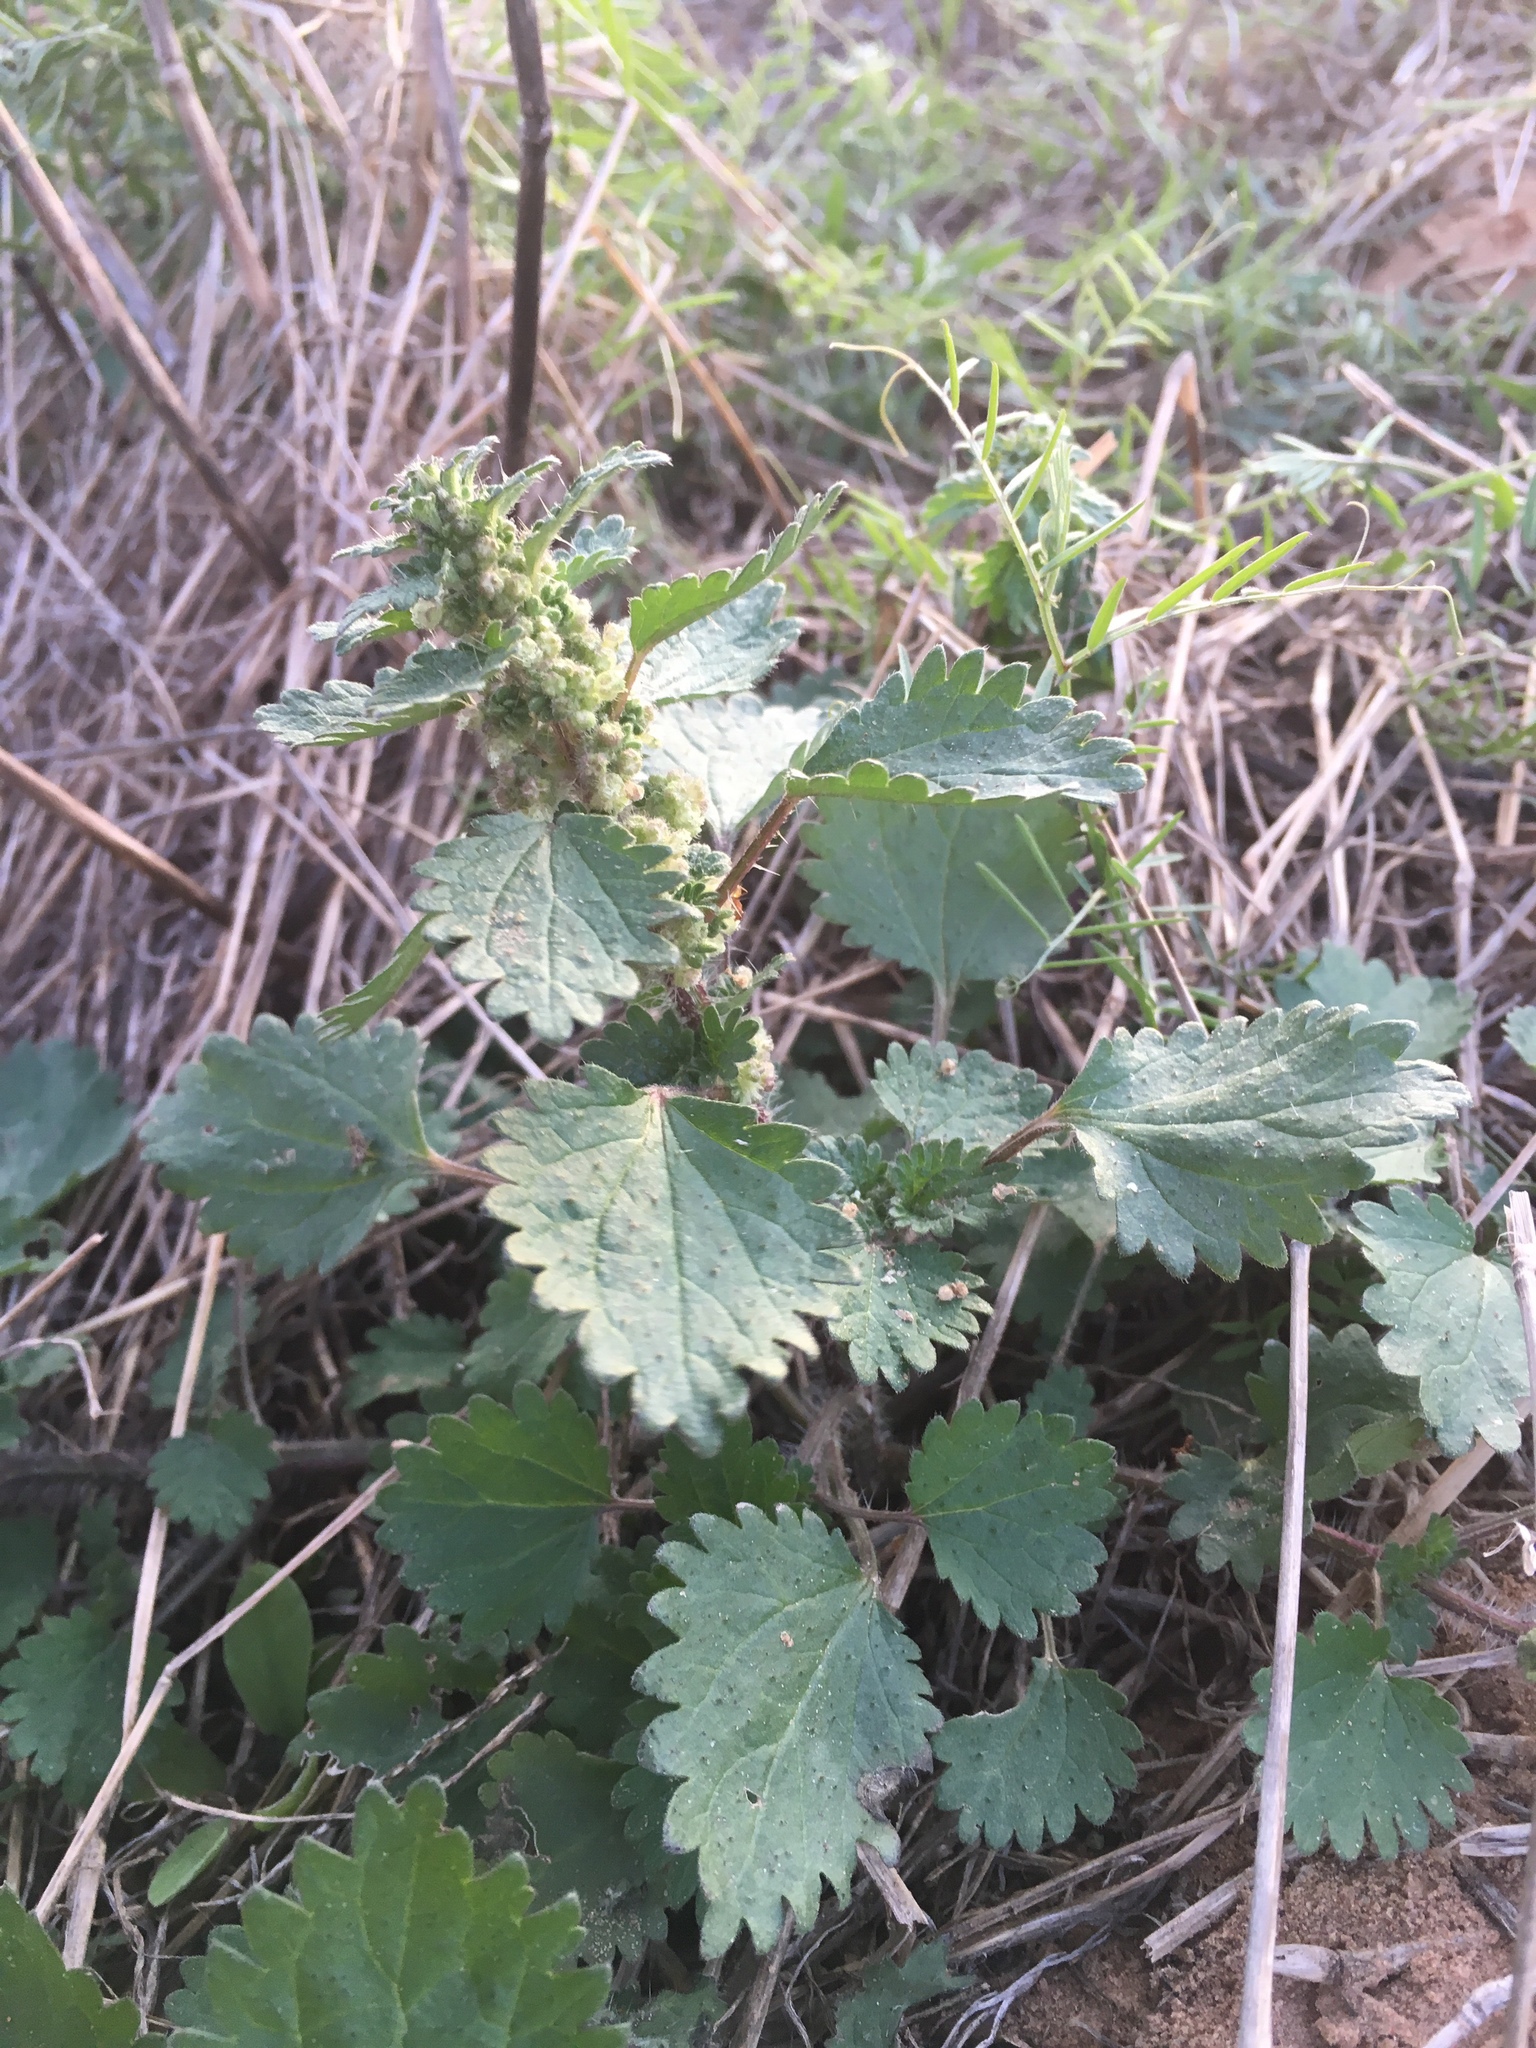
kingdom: Plantae
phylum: Tracheophyta
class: Magnoliopsida
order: Rosales
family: Urticaceae
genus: Urtica
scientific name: Urtica chamaedryoides
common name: Heart-leaf nettle
